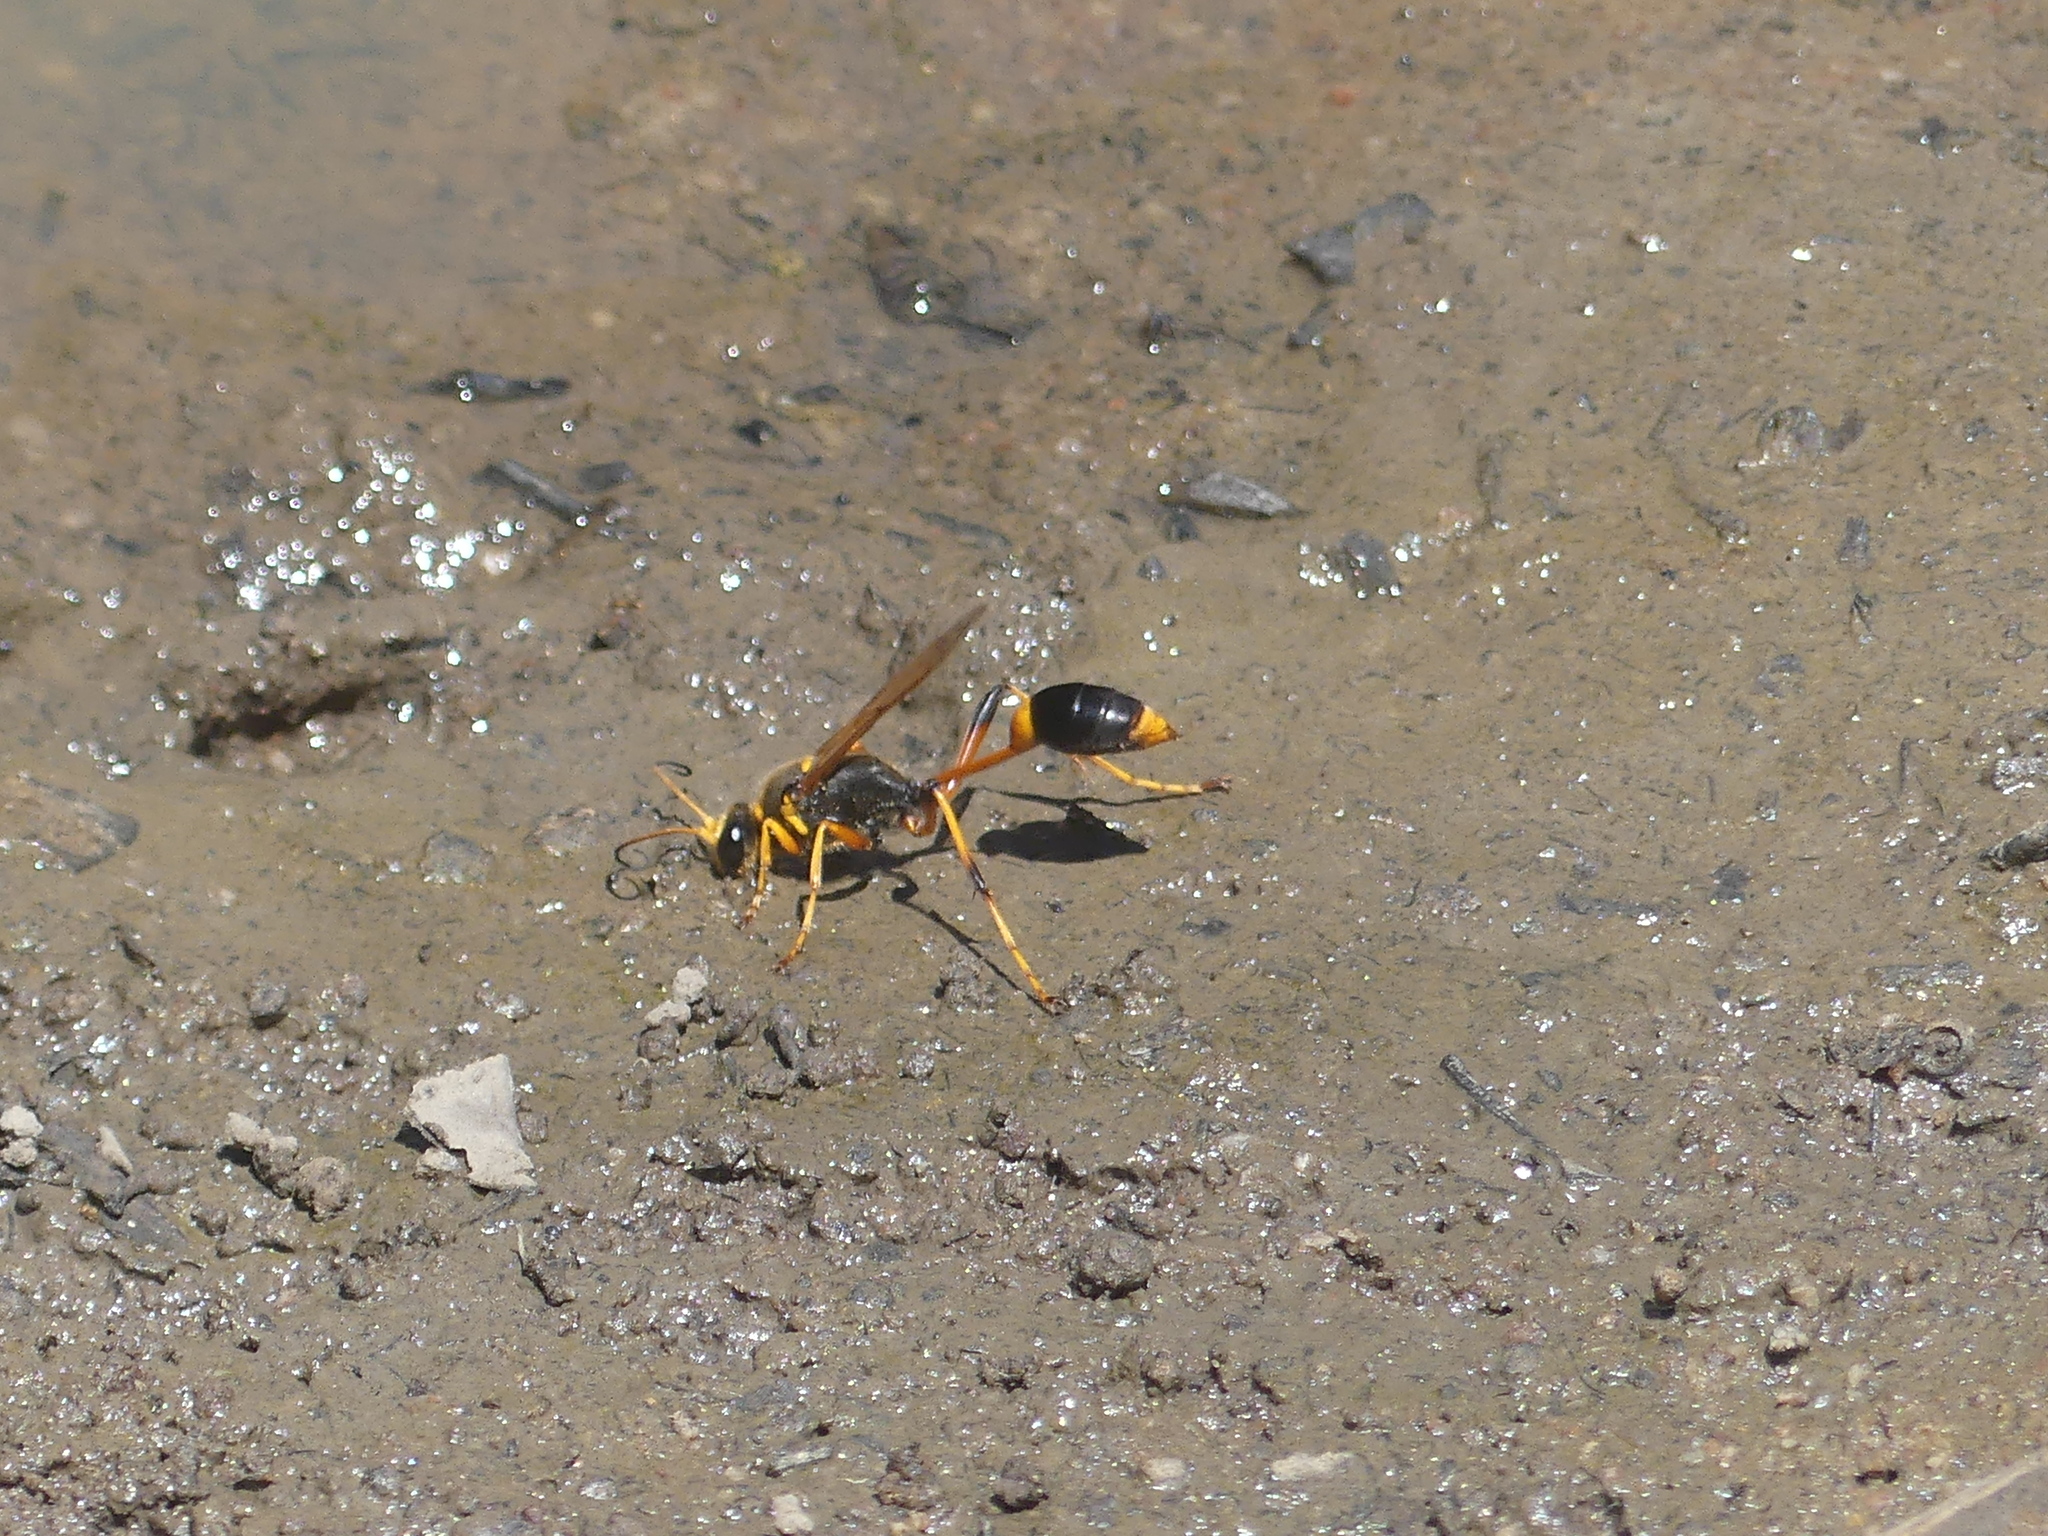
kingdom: Animalia
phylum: Arthropoda
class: Insecta
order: Hymenoptera
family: Sphecidae
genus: Sceliphron
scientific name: Sceliphron laetum
